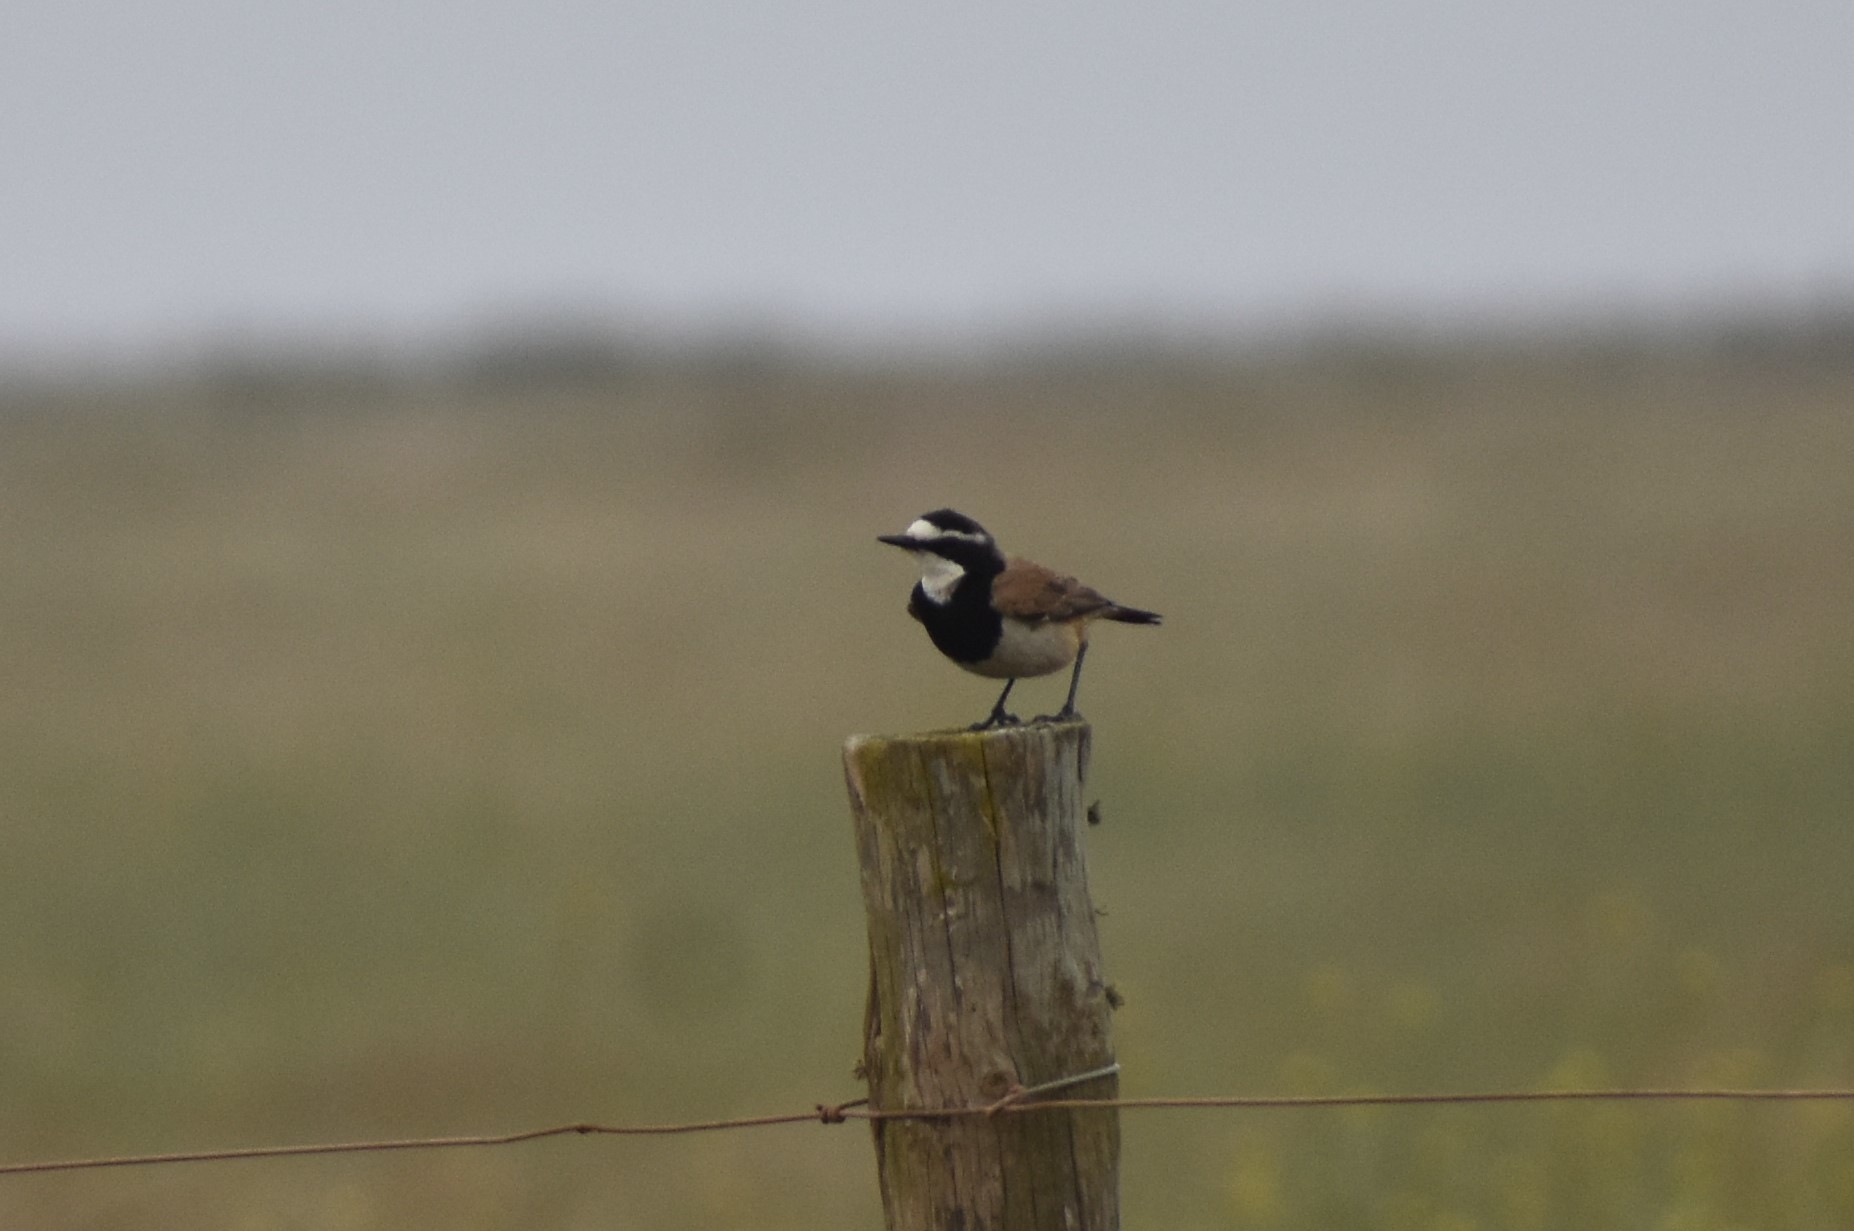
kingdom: Animalia
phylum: Chordata
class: Aves
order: Passeriformes
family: Muscicapidae
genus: Oenanthe
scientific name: Oenanthe pileata
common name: Capped wheatear
